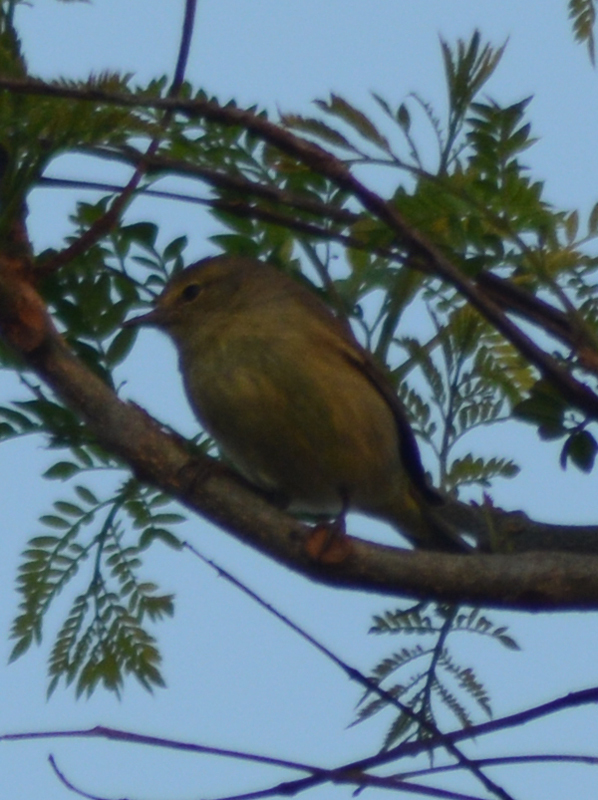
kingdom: Animalia
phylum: Chordata
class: Aves
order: Passeriformes
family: Parulidae
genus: Leiothlypis
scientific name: Leiothlypis celata
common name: Orange-crowned warbler
